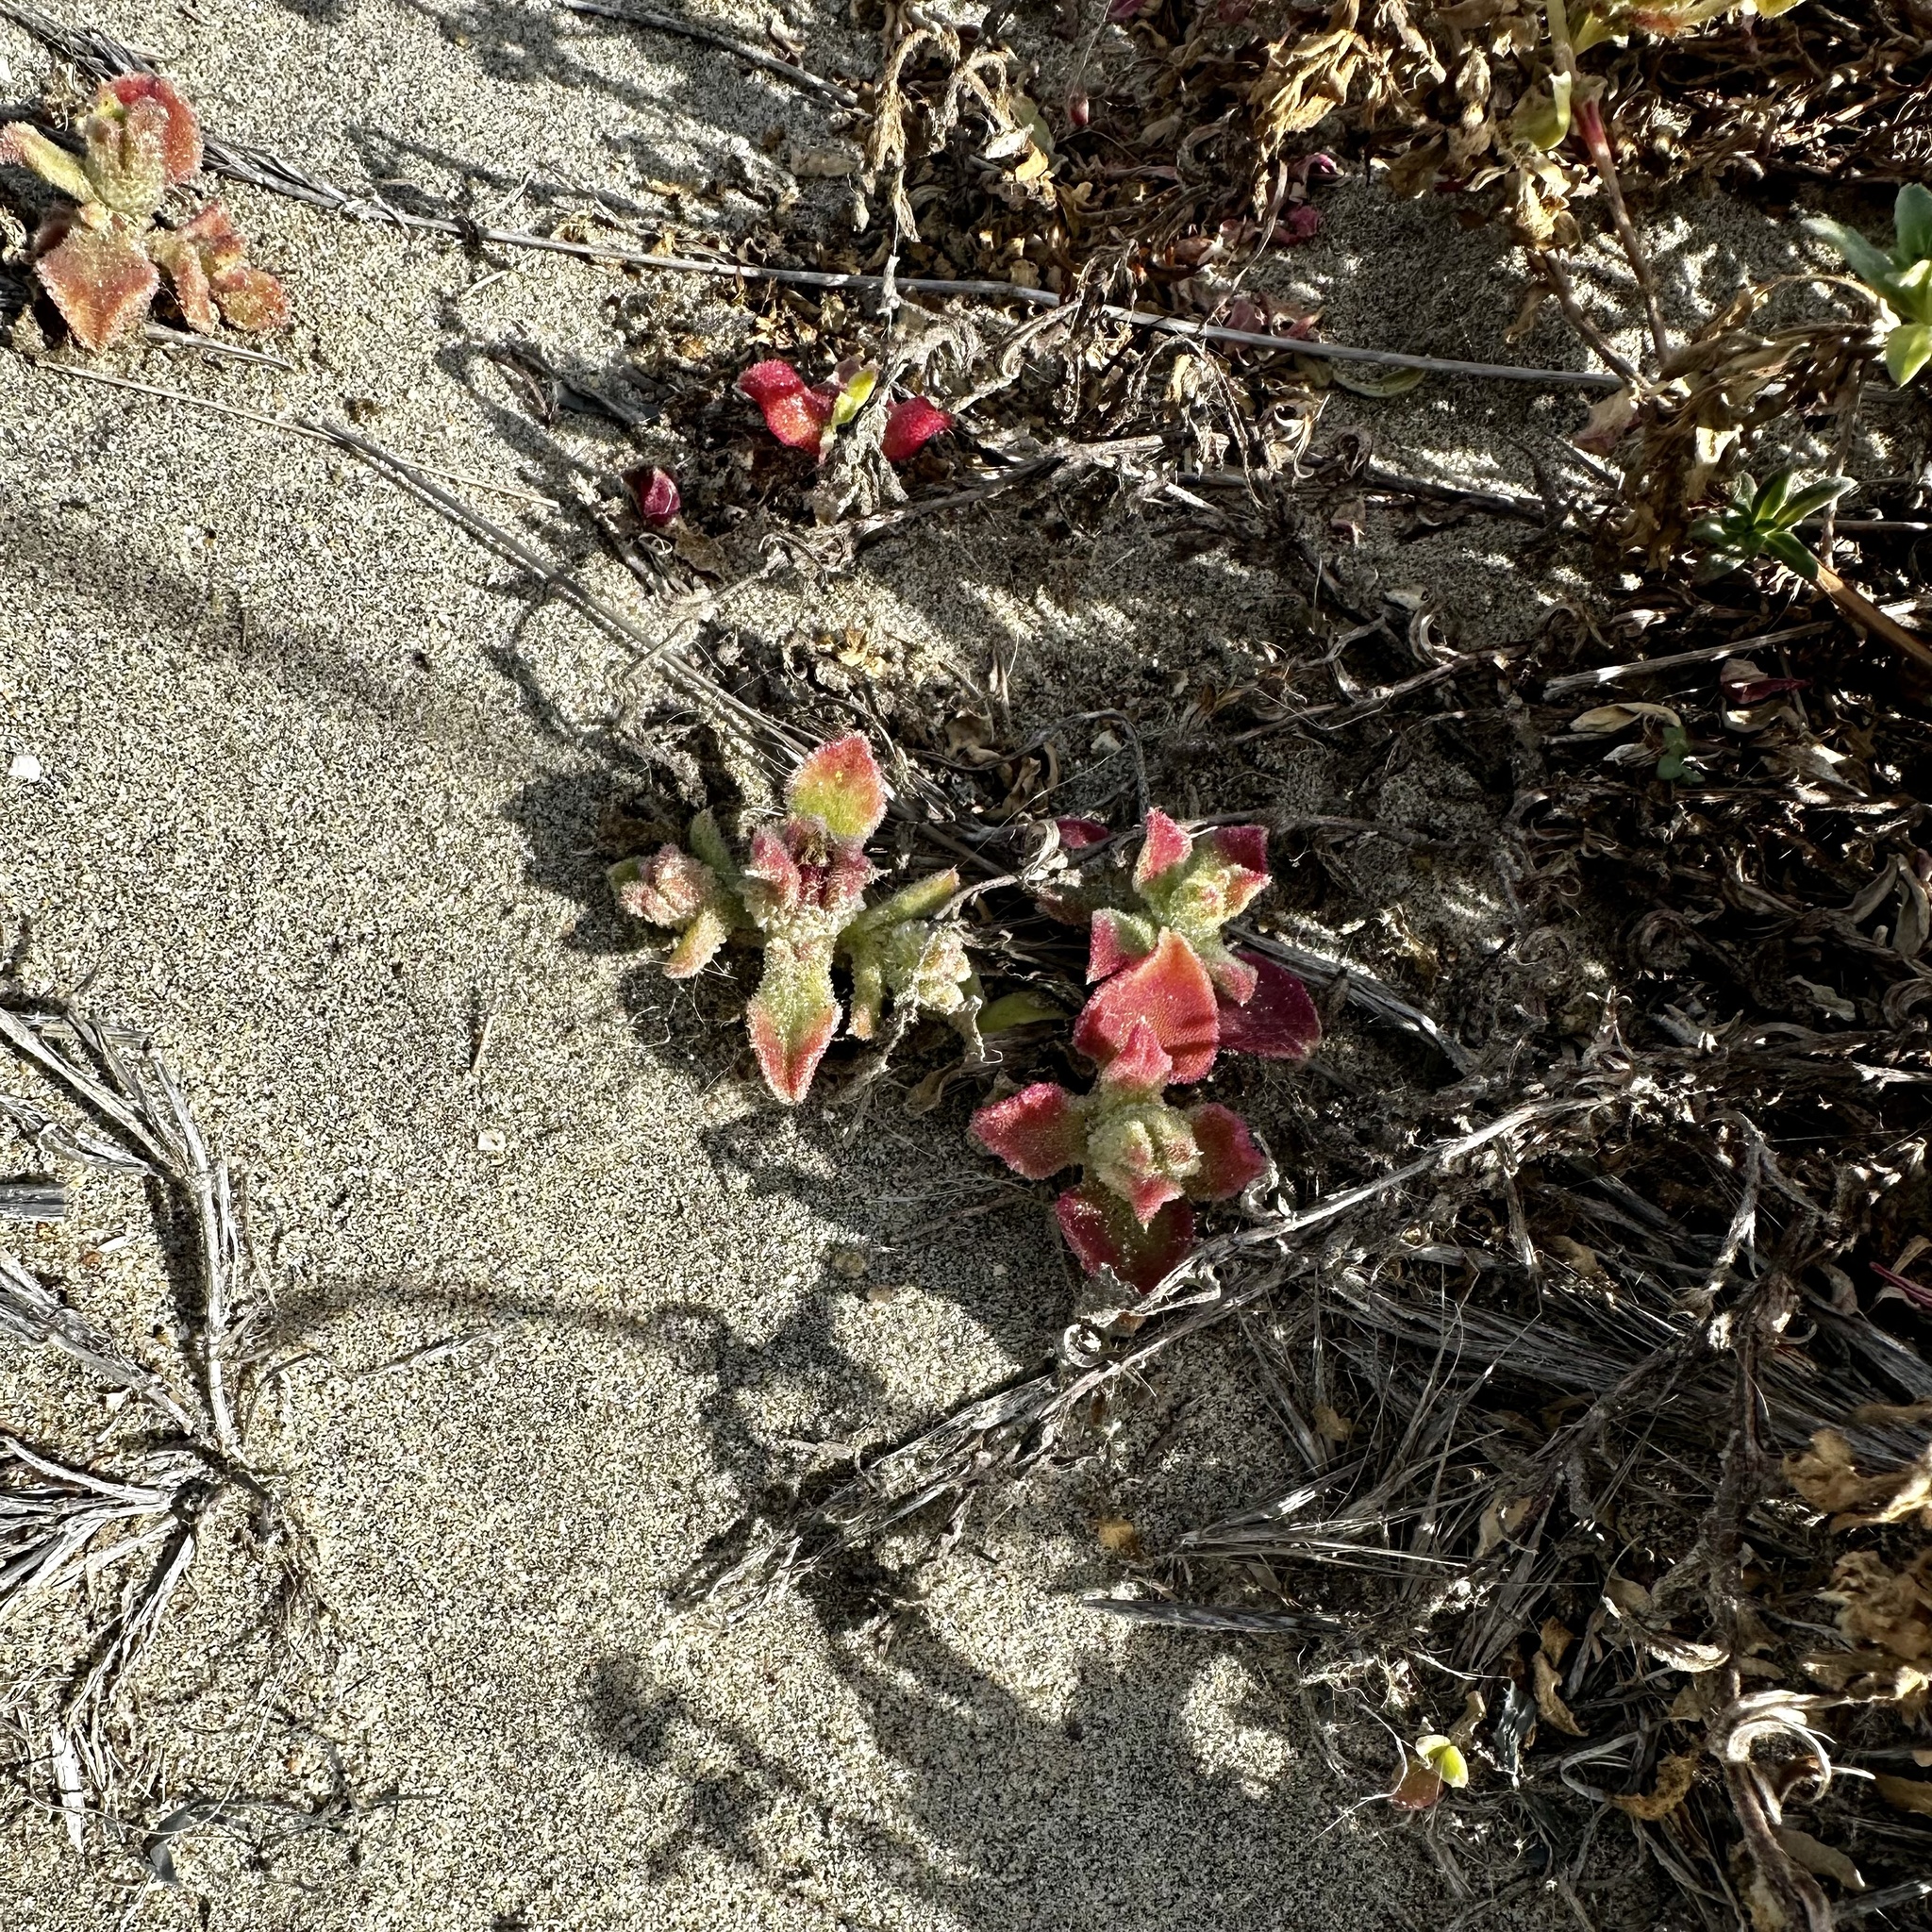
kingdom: Plantae
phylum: Tracheophyta
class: Magnoliopsida
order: Caryophyllales
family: Aizoaceae
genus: Mesembryanthemum
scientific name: Mesembryanthemum crystallinum
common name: Common iceplant
